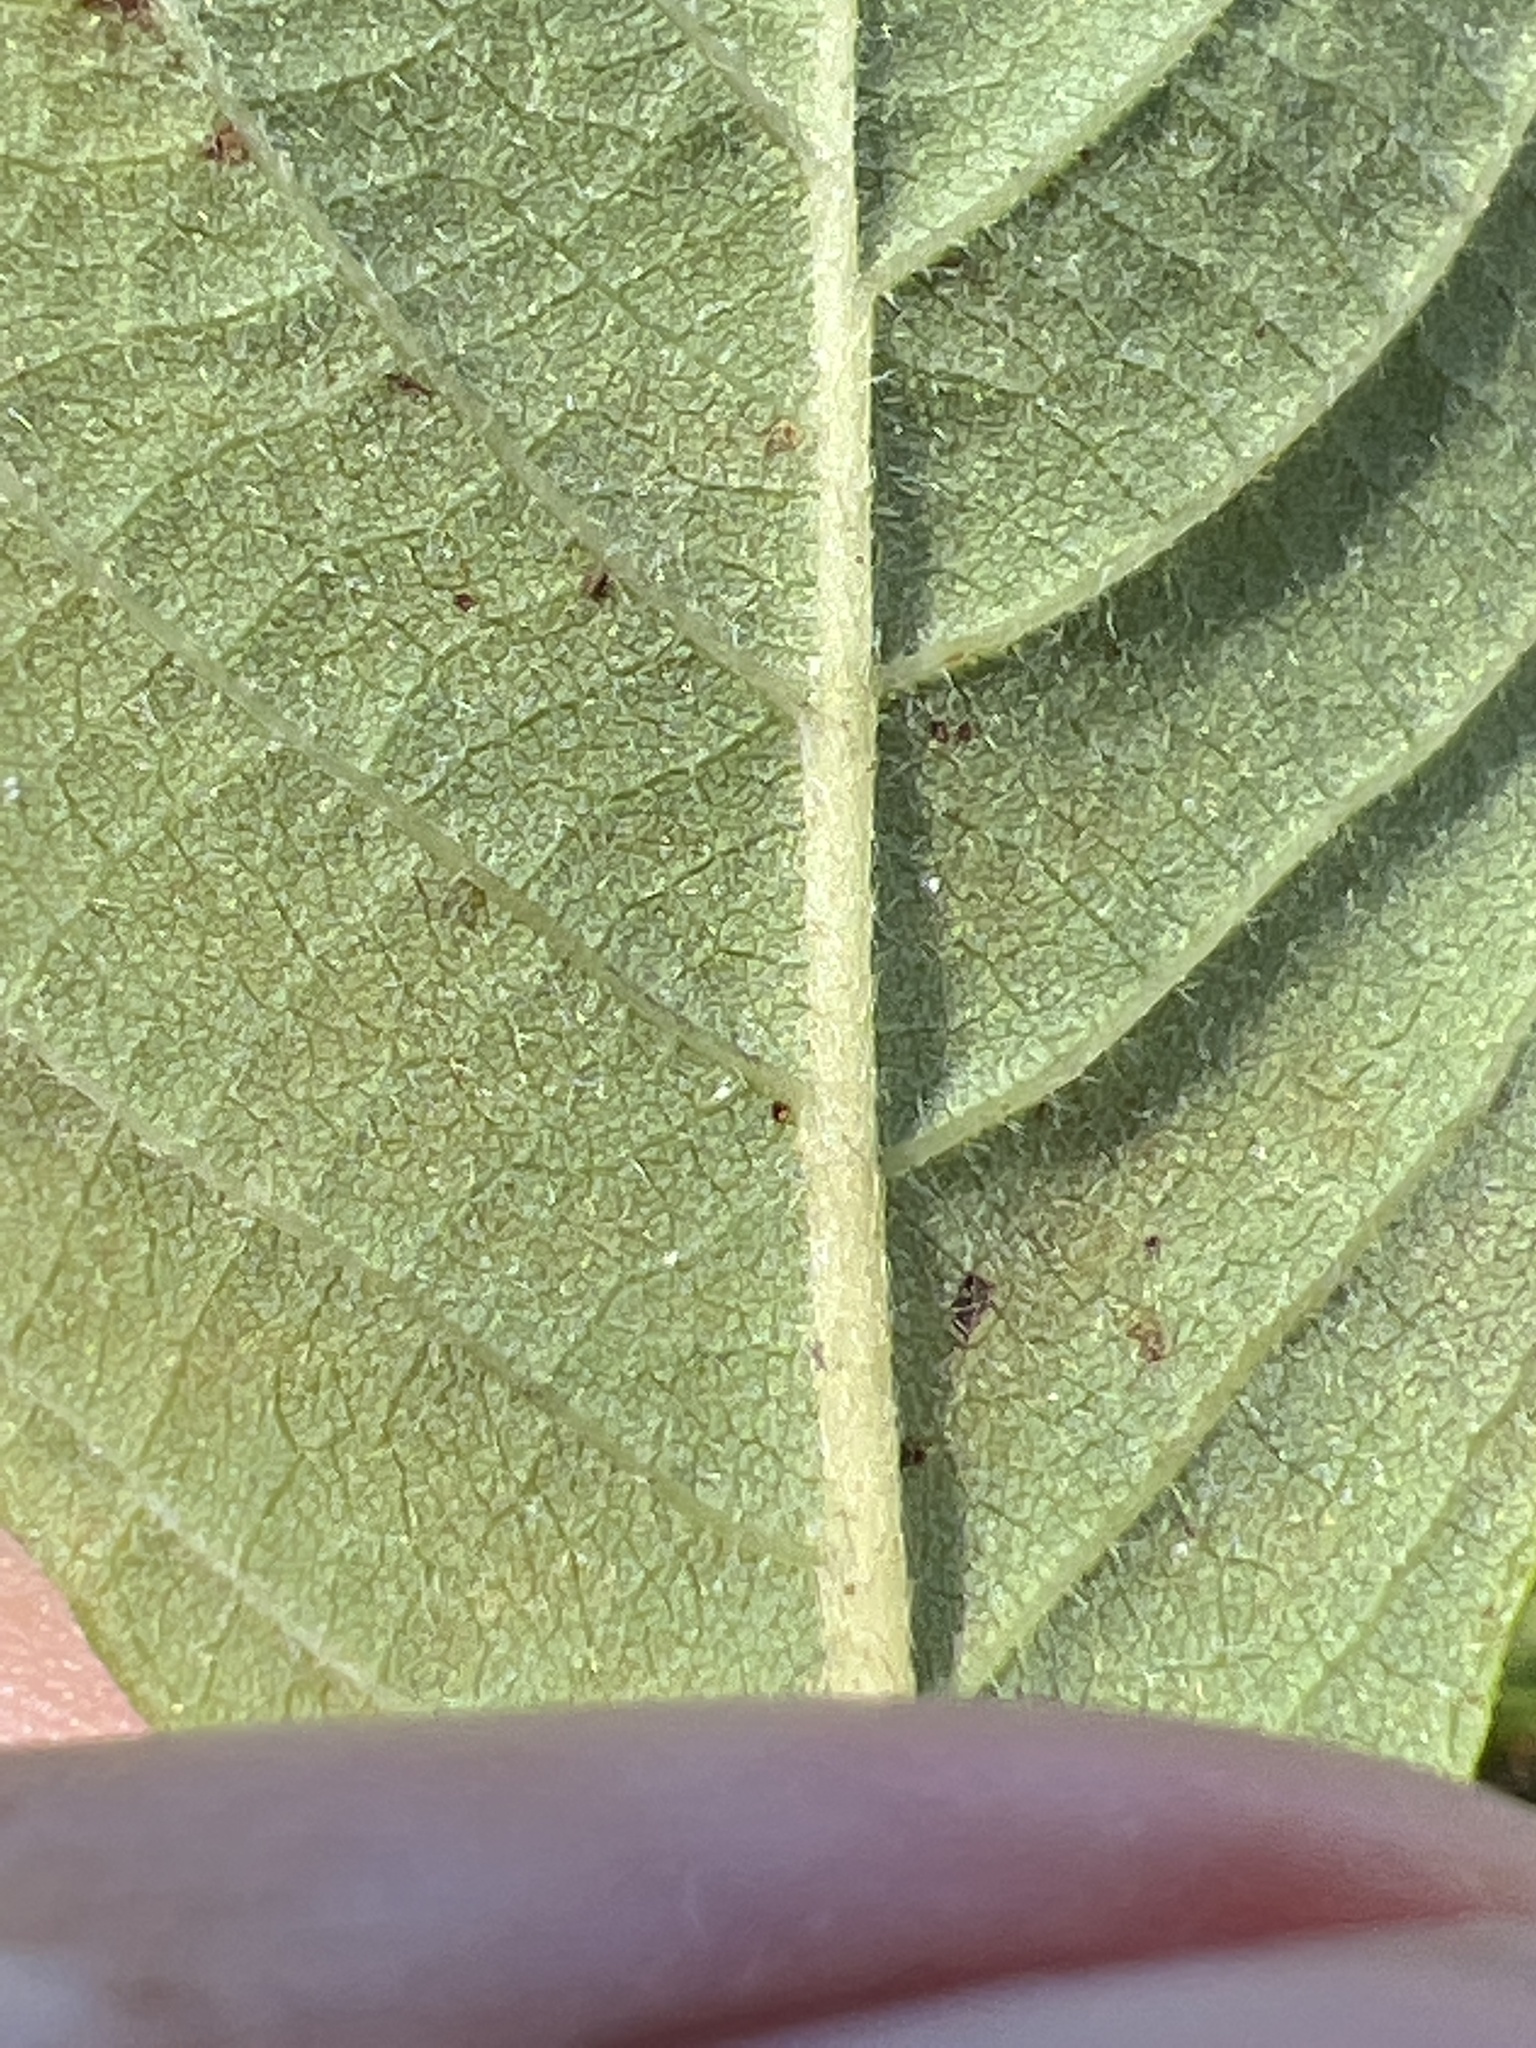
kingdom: Plantae
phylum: Tracheophyta
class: Magnoliopsida
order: Ericales
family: Clethraceae
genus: Clethra
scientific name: Clethra tomentosa
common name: Downy sweet pepperbush
